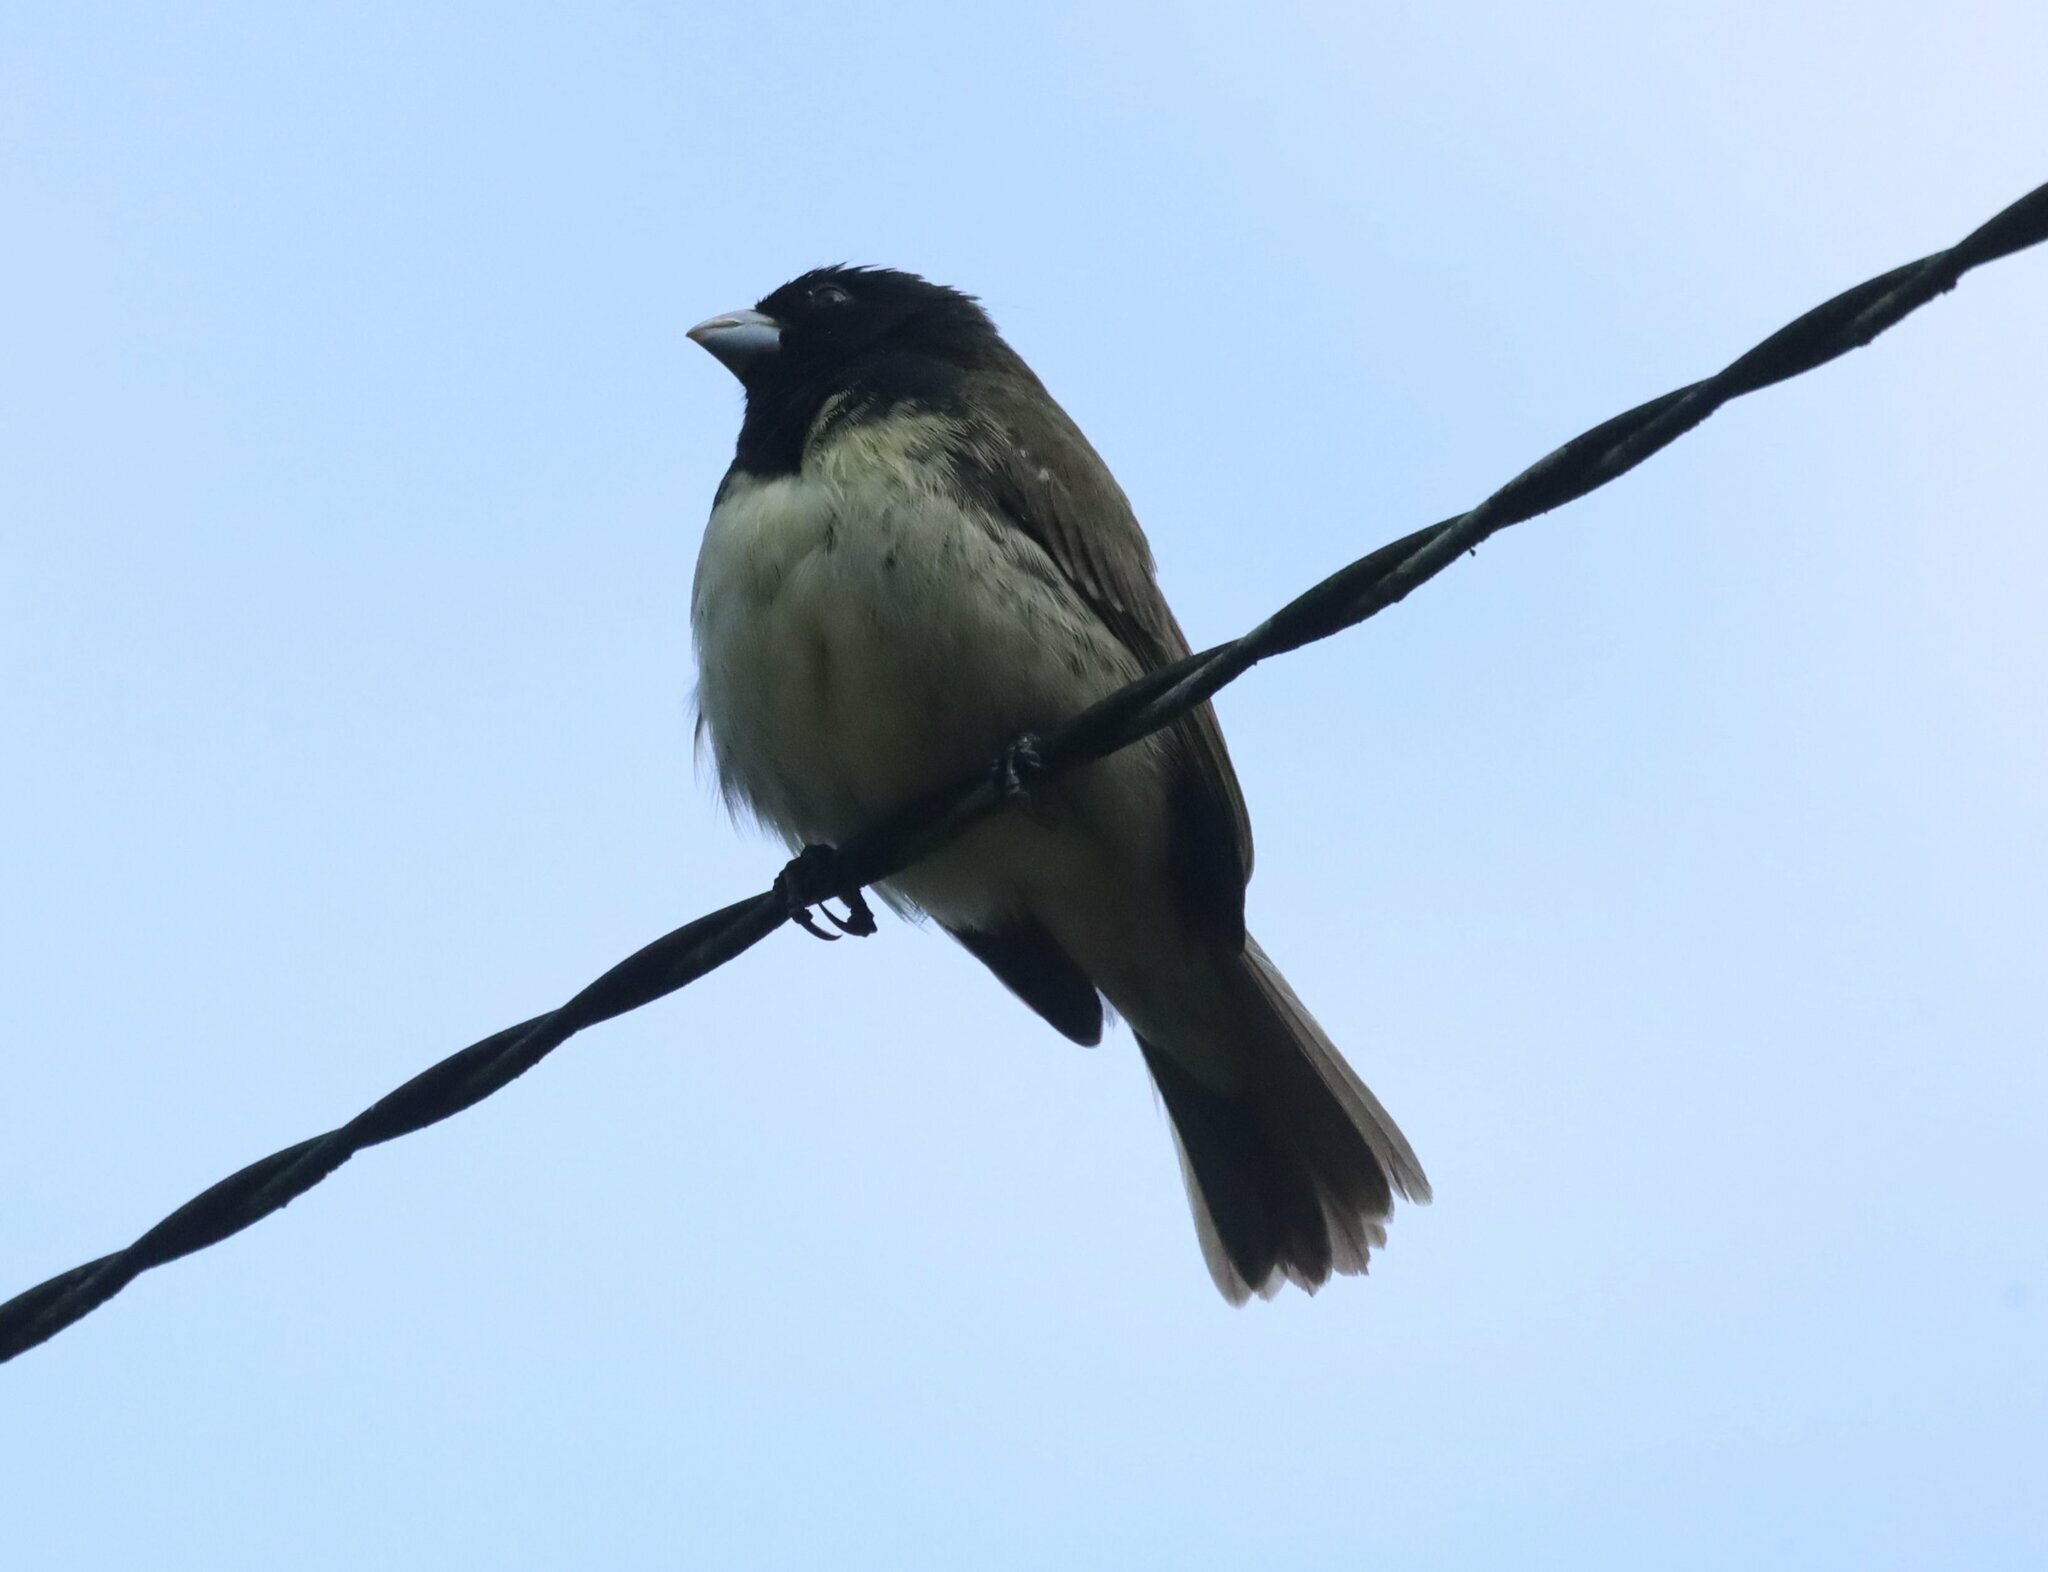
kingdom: Animalia
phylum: Chordata
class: Aves
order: Passeriformes
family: Thraupidae
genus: Sporophila
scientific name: Sporophila nigricollis
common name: Yellow-bellied seedeater
